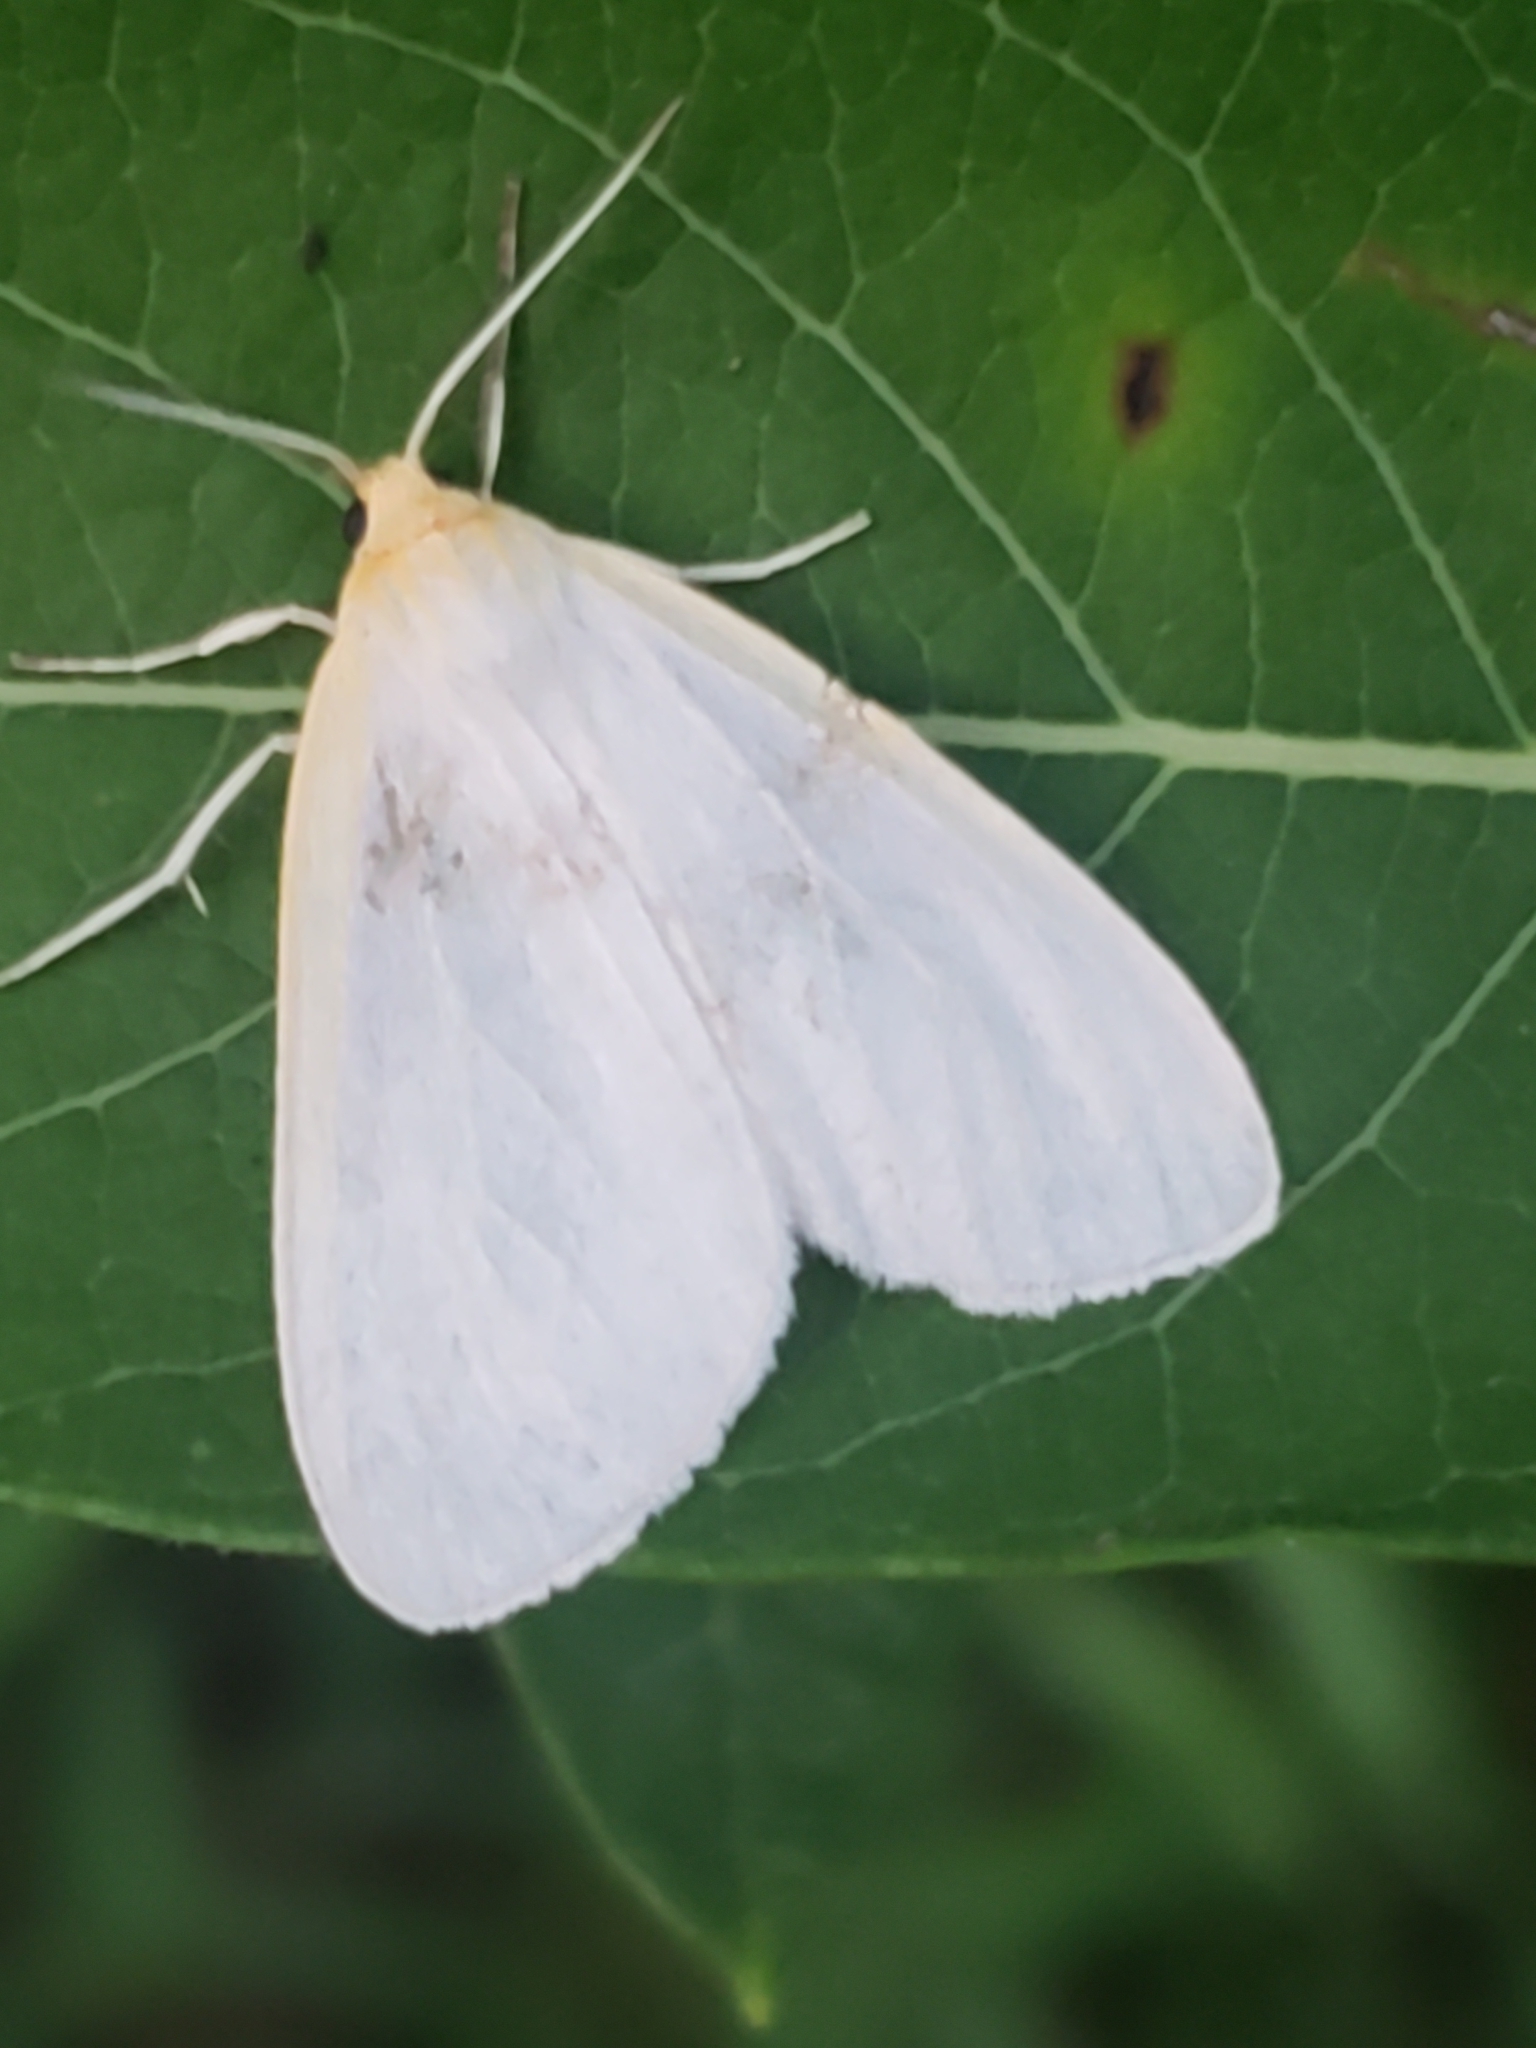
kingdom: Animalia
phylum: Arthropoda
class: Insecta
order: Lepidoptera
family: Erebidae
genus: Cycnia
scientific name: Cycnia tenera
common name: Delicate cycnia moth
